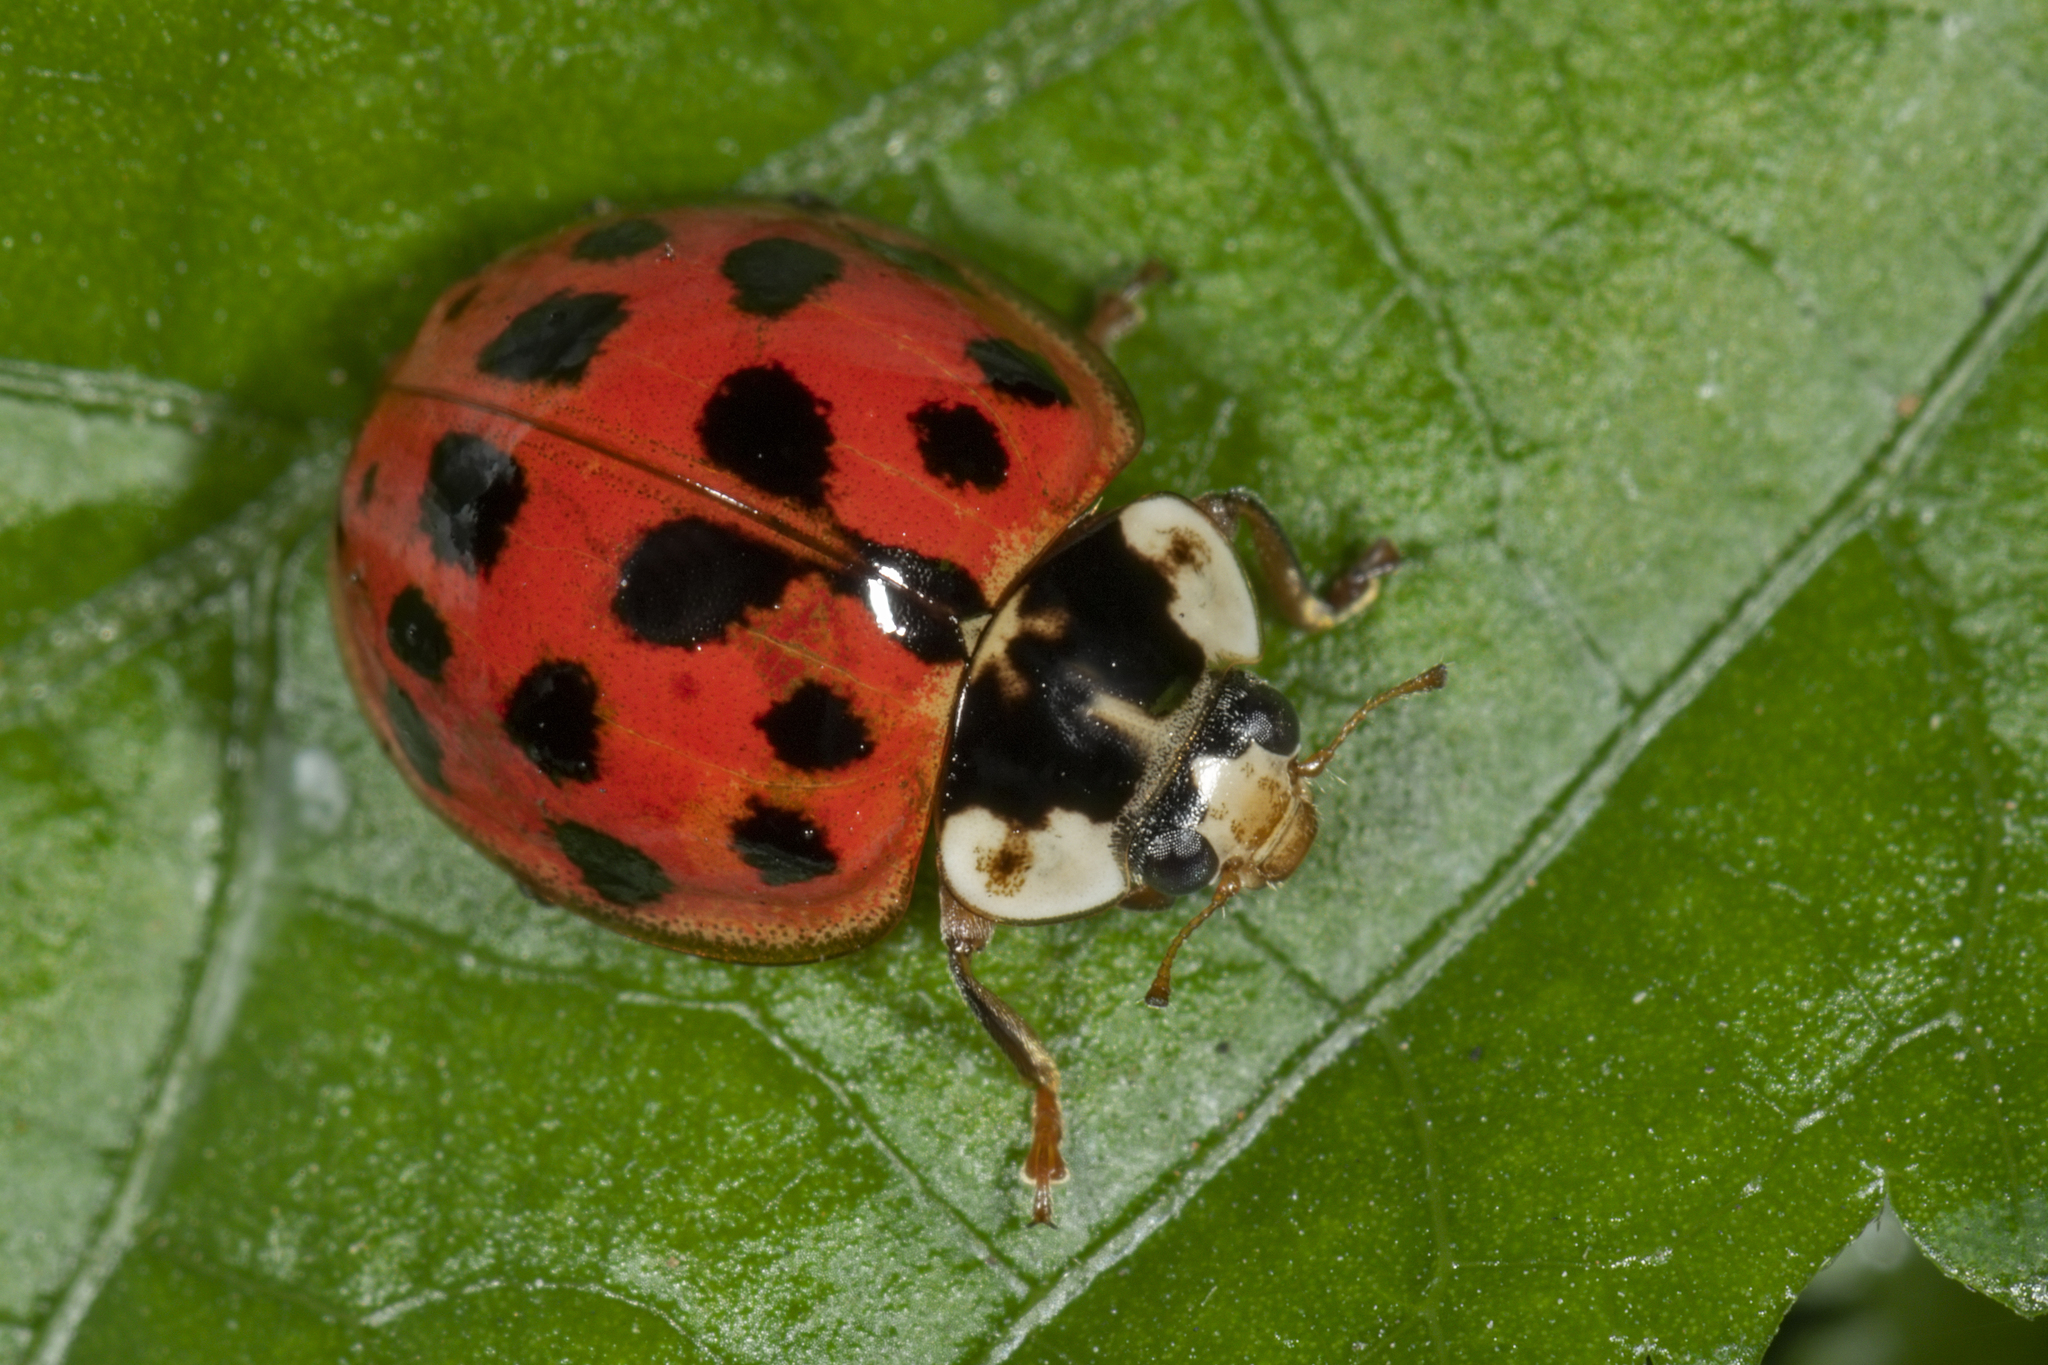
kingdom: Animalia
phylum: Arthropoda
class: Insecta
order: Coleoptera
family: Coccinellidae
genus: Harmonia
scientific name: Harmonia axyridis
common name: Harlequin ladybird
